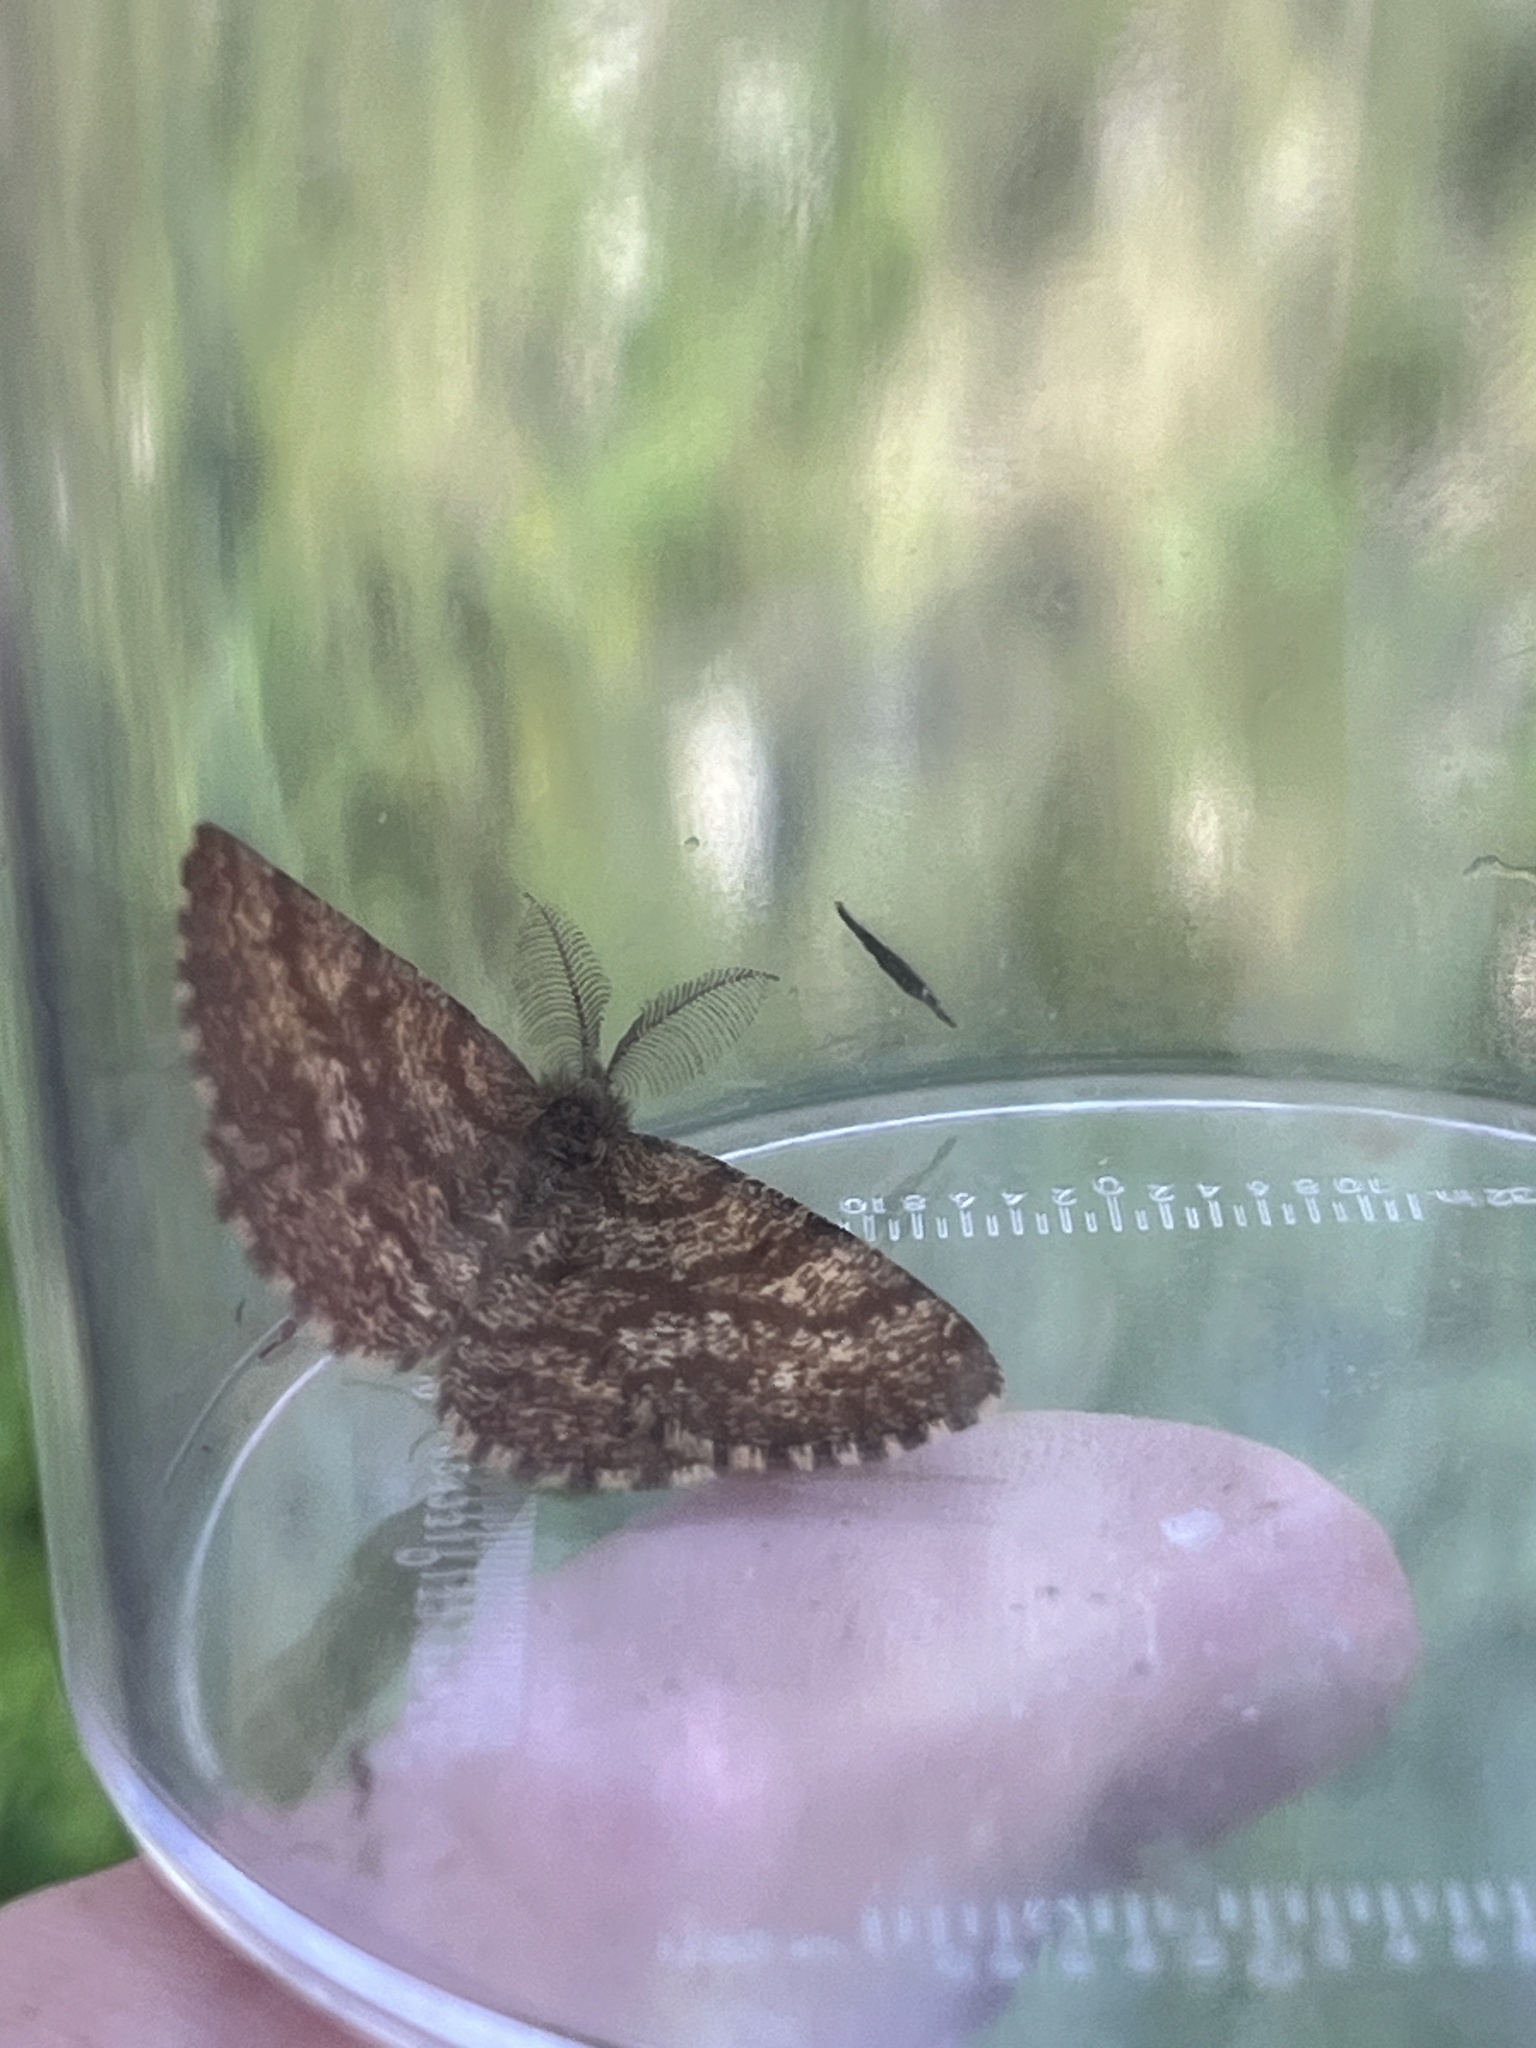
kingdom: Animalia
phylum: Arthropoda
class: Insecta
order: Lepidoptera
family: Geometridae
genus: Ematurga
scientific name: Ematurga atomaria
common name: Common heath
